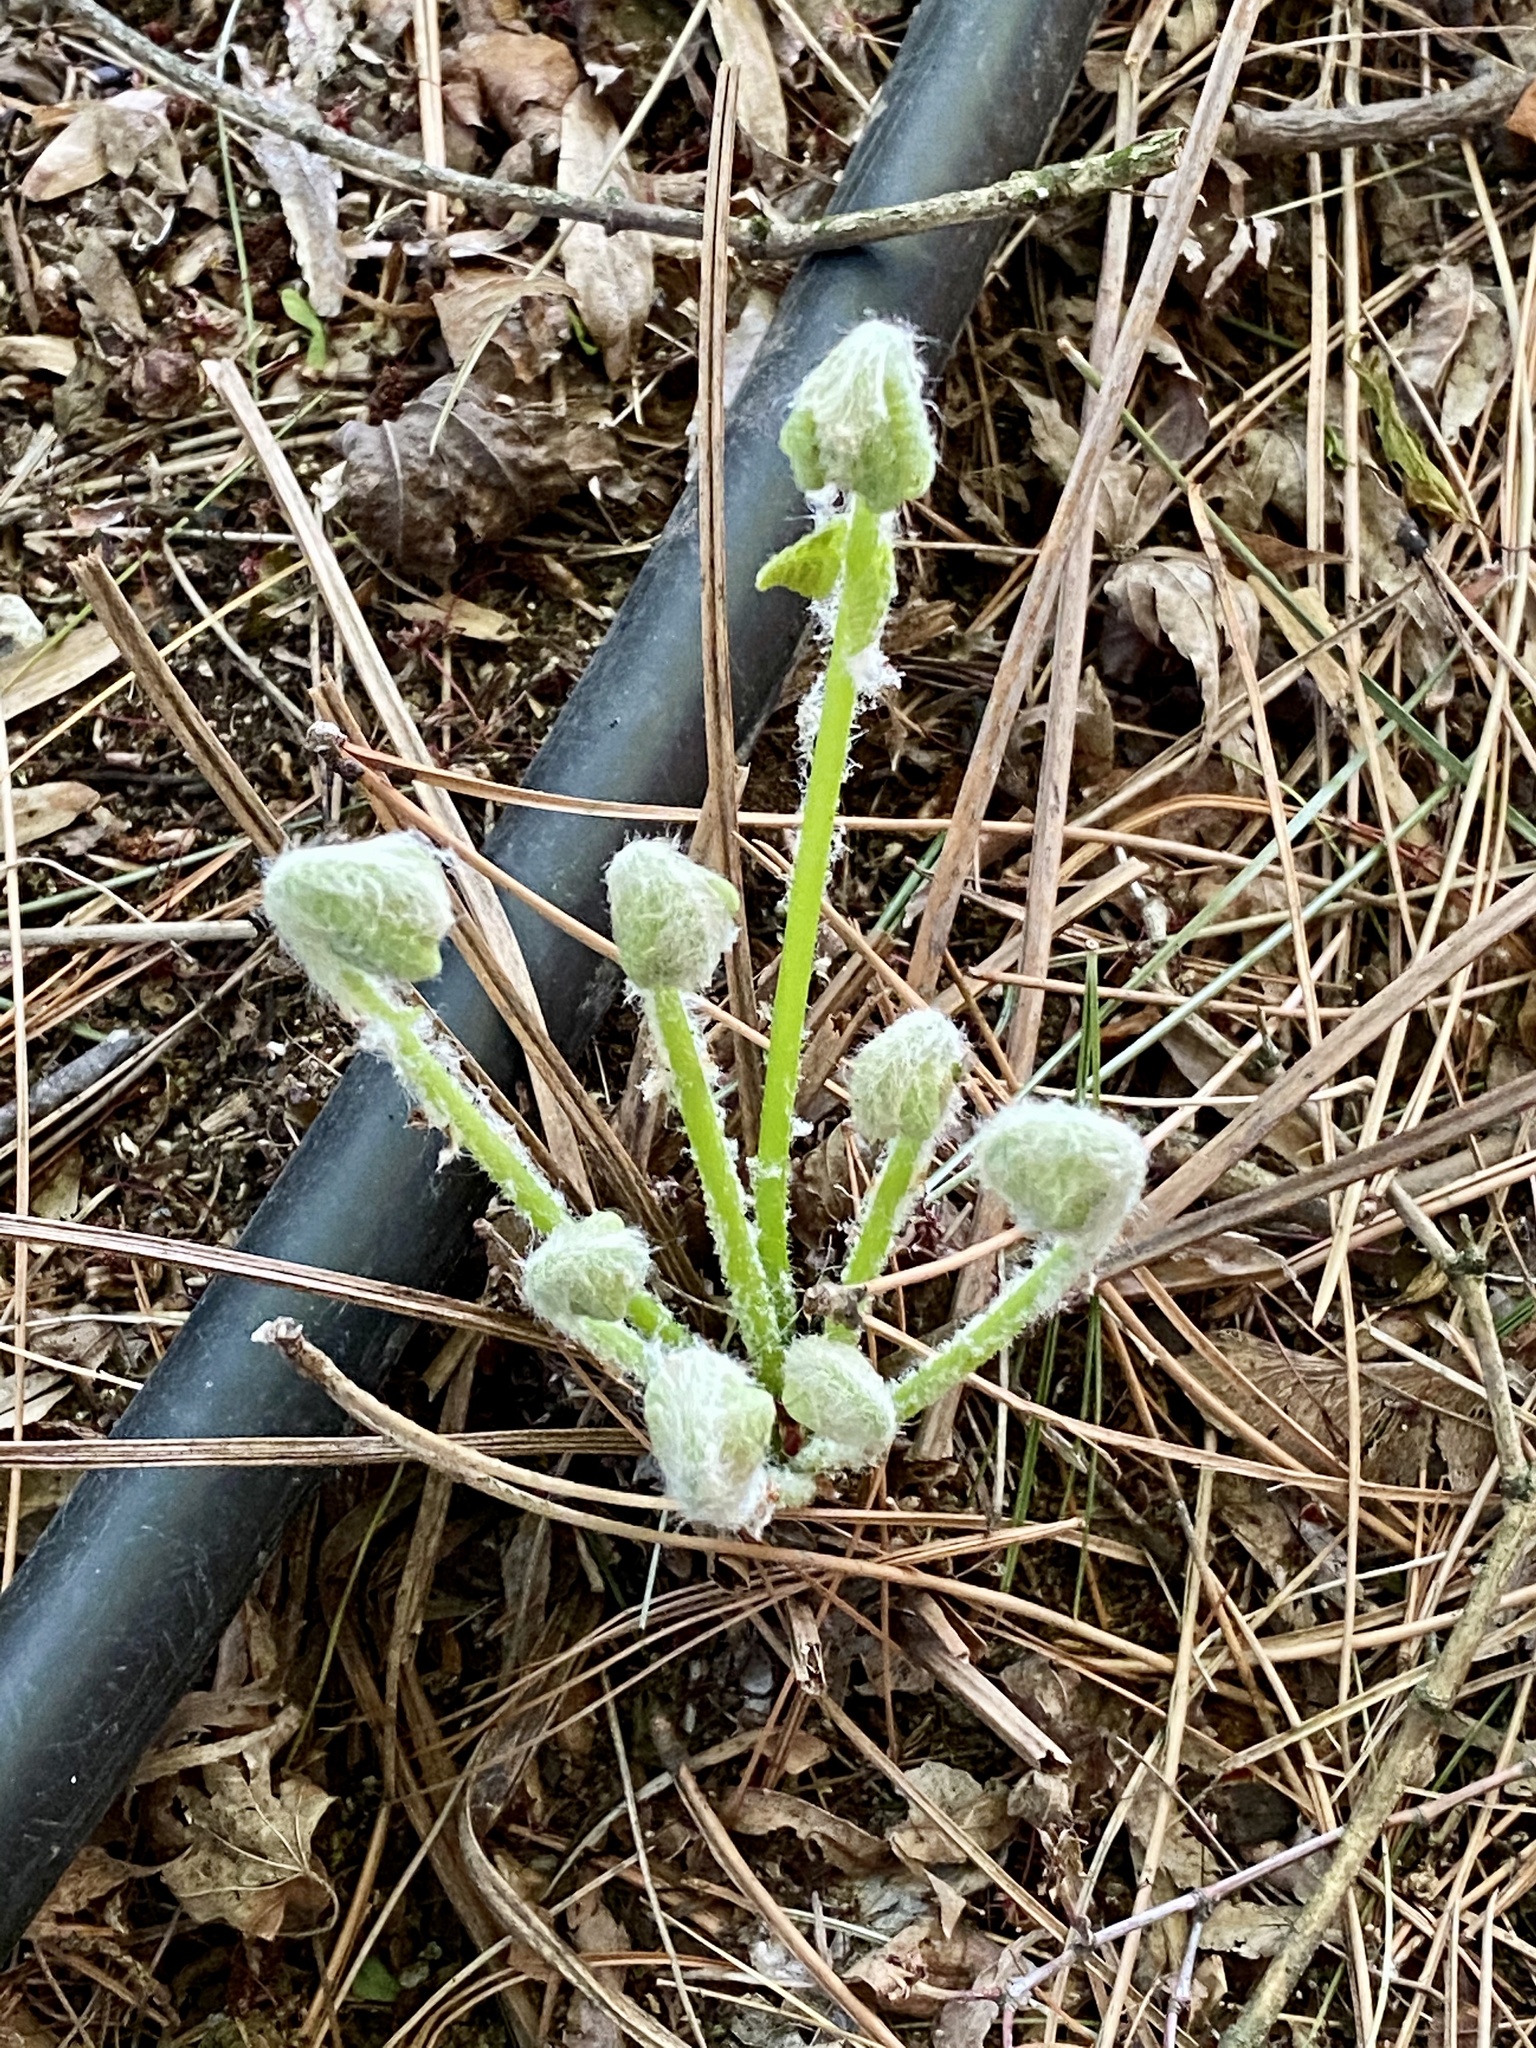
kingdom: Plantae
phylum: Tracheophyta
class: Polypodiopsida
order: Osmundales
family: Osmundaceae
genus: Claytosmunda
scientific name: Claytosmunda claytoniana
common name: Clayton's fern
